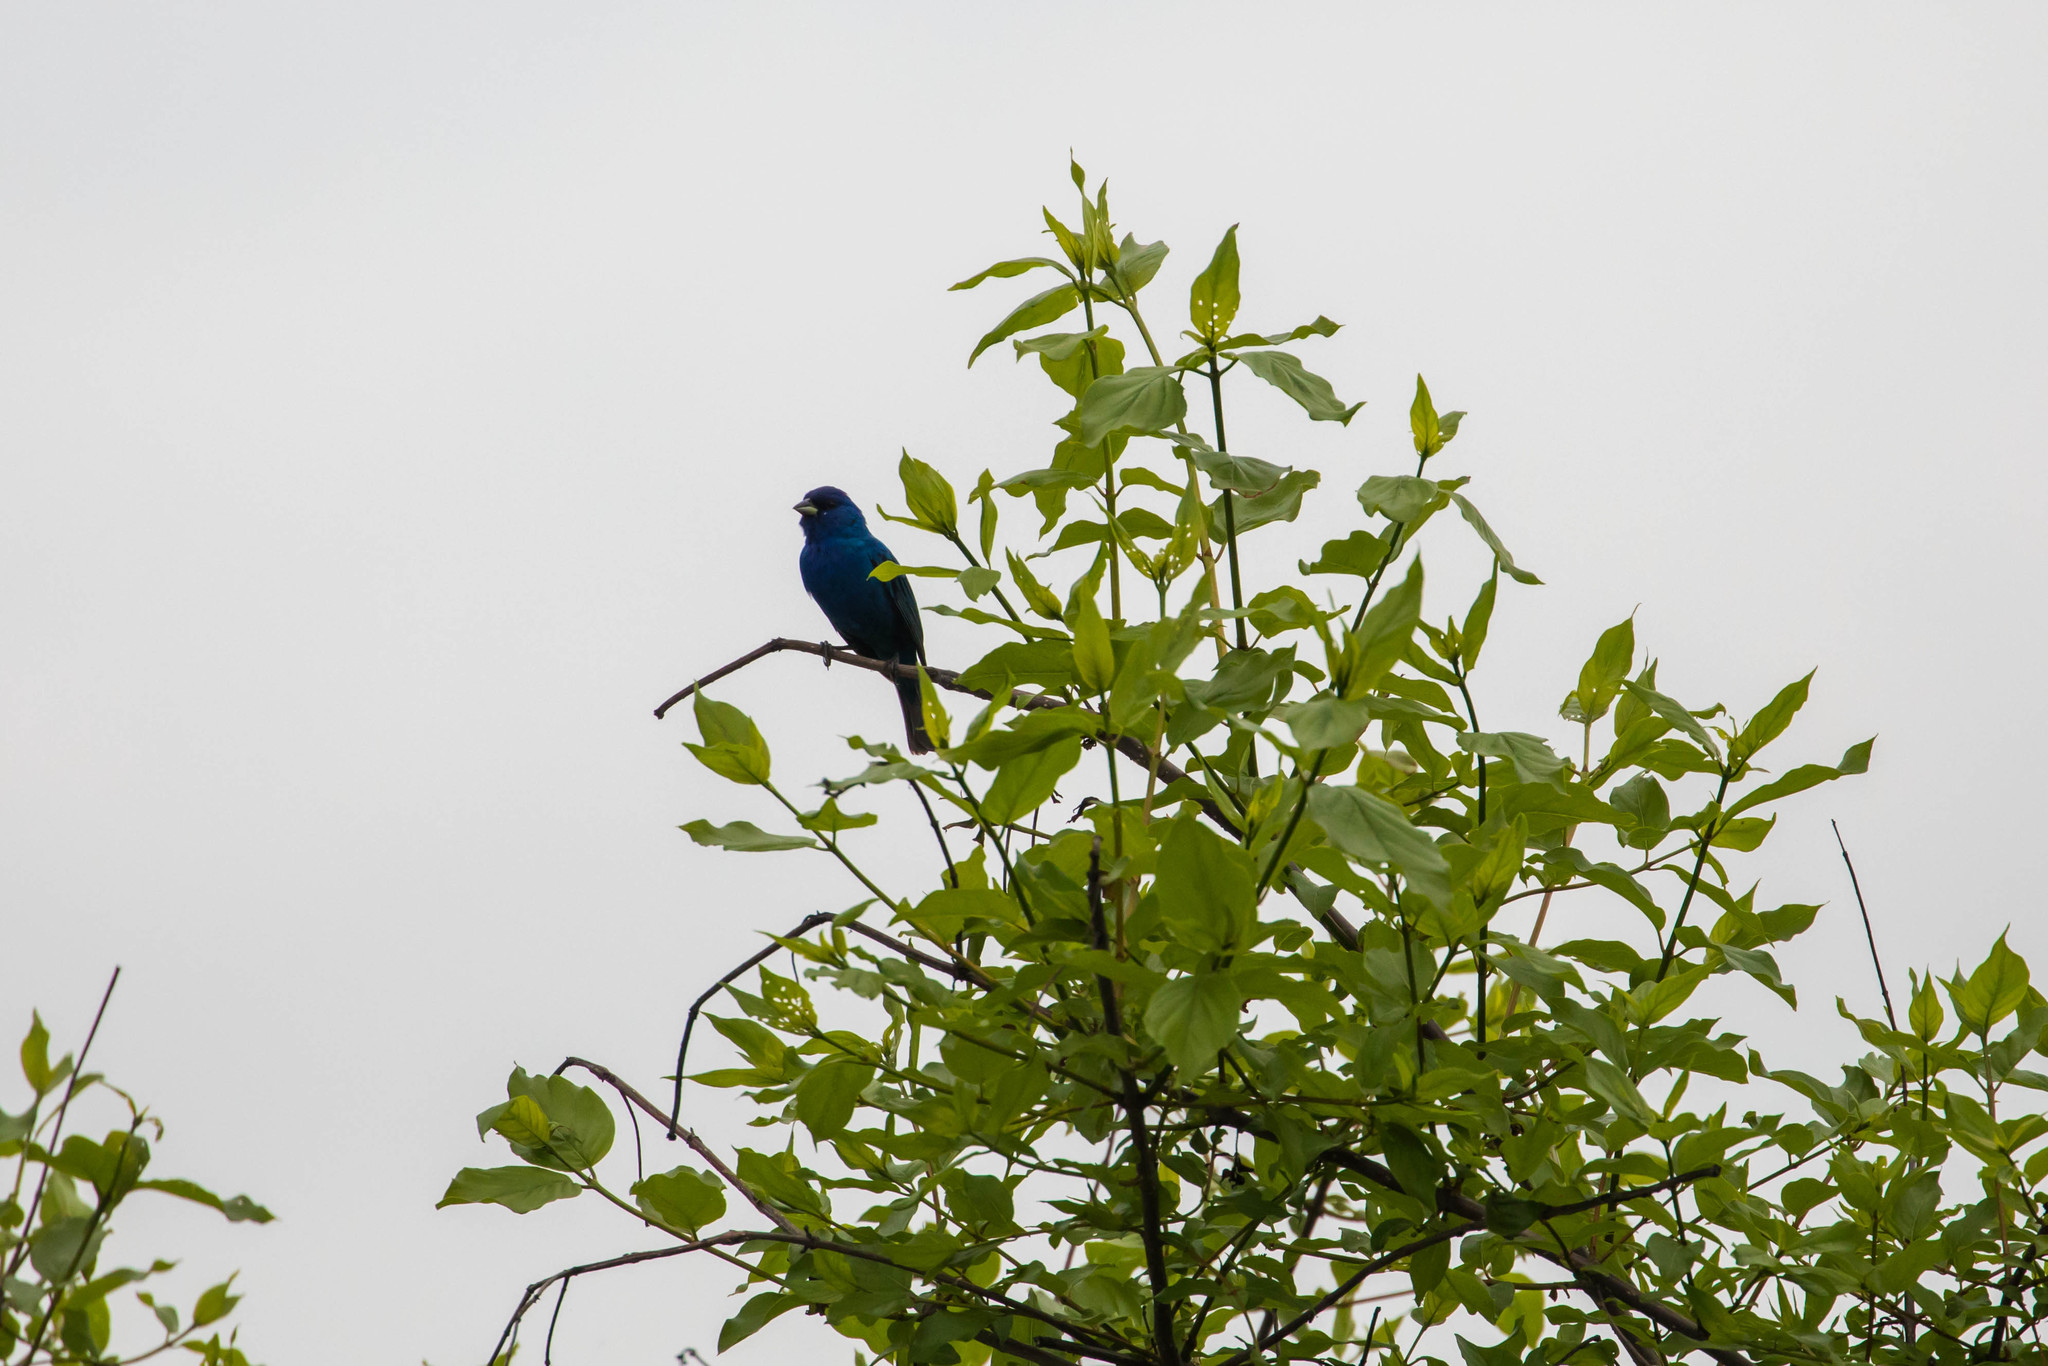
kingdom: Animalia
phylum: Chordata
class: Aves
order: Passeriformes
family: Cardinalidae
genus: Passerina
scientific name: Passerina cyanea
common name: Indigo bunting
